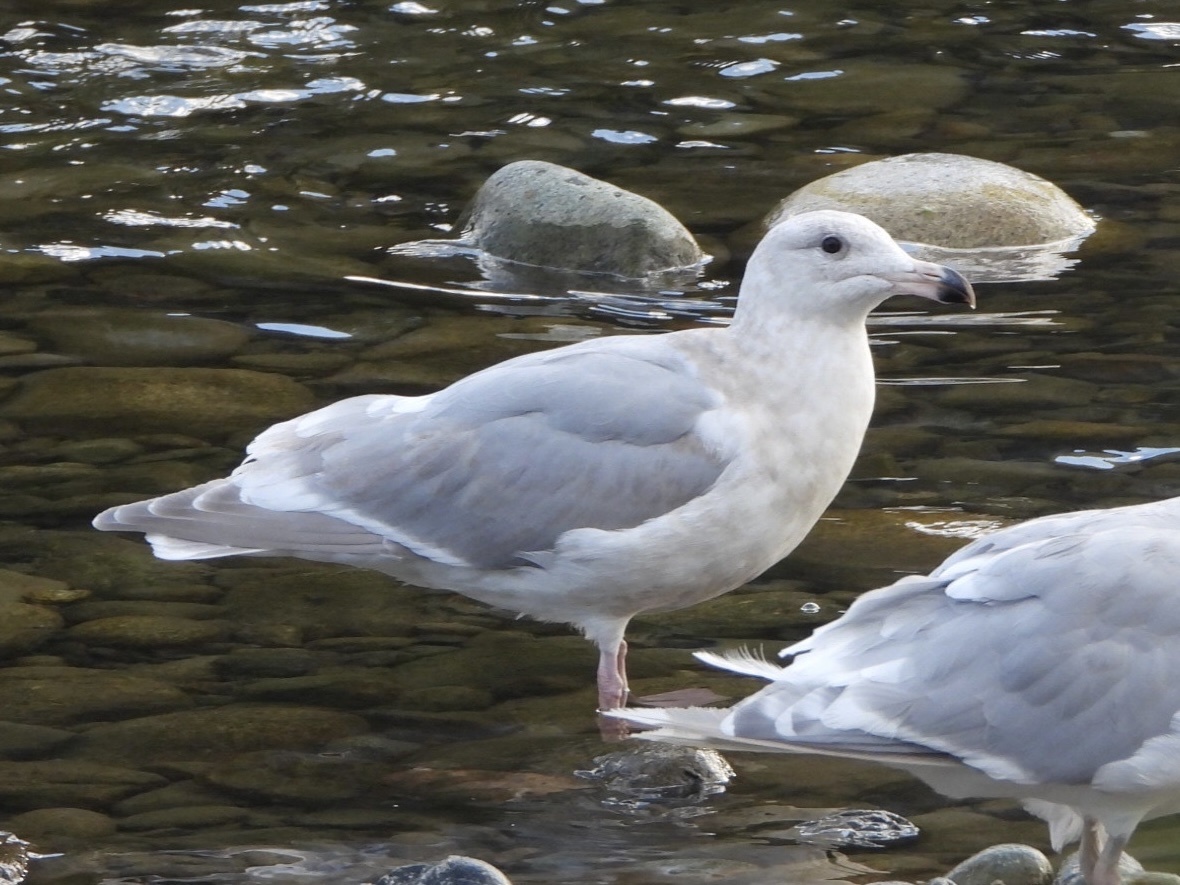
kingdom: Animalia
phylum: Chordata
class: Aves
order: Charadriiformes
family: Laridae
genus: Larus
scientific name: Larus glaucescens
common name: Glaucous-winged gull
